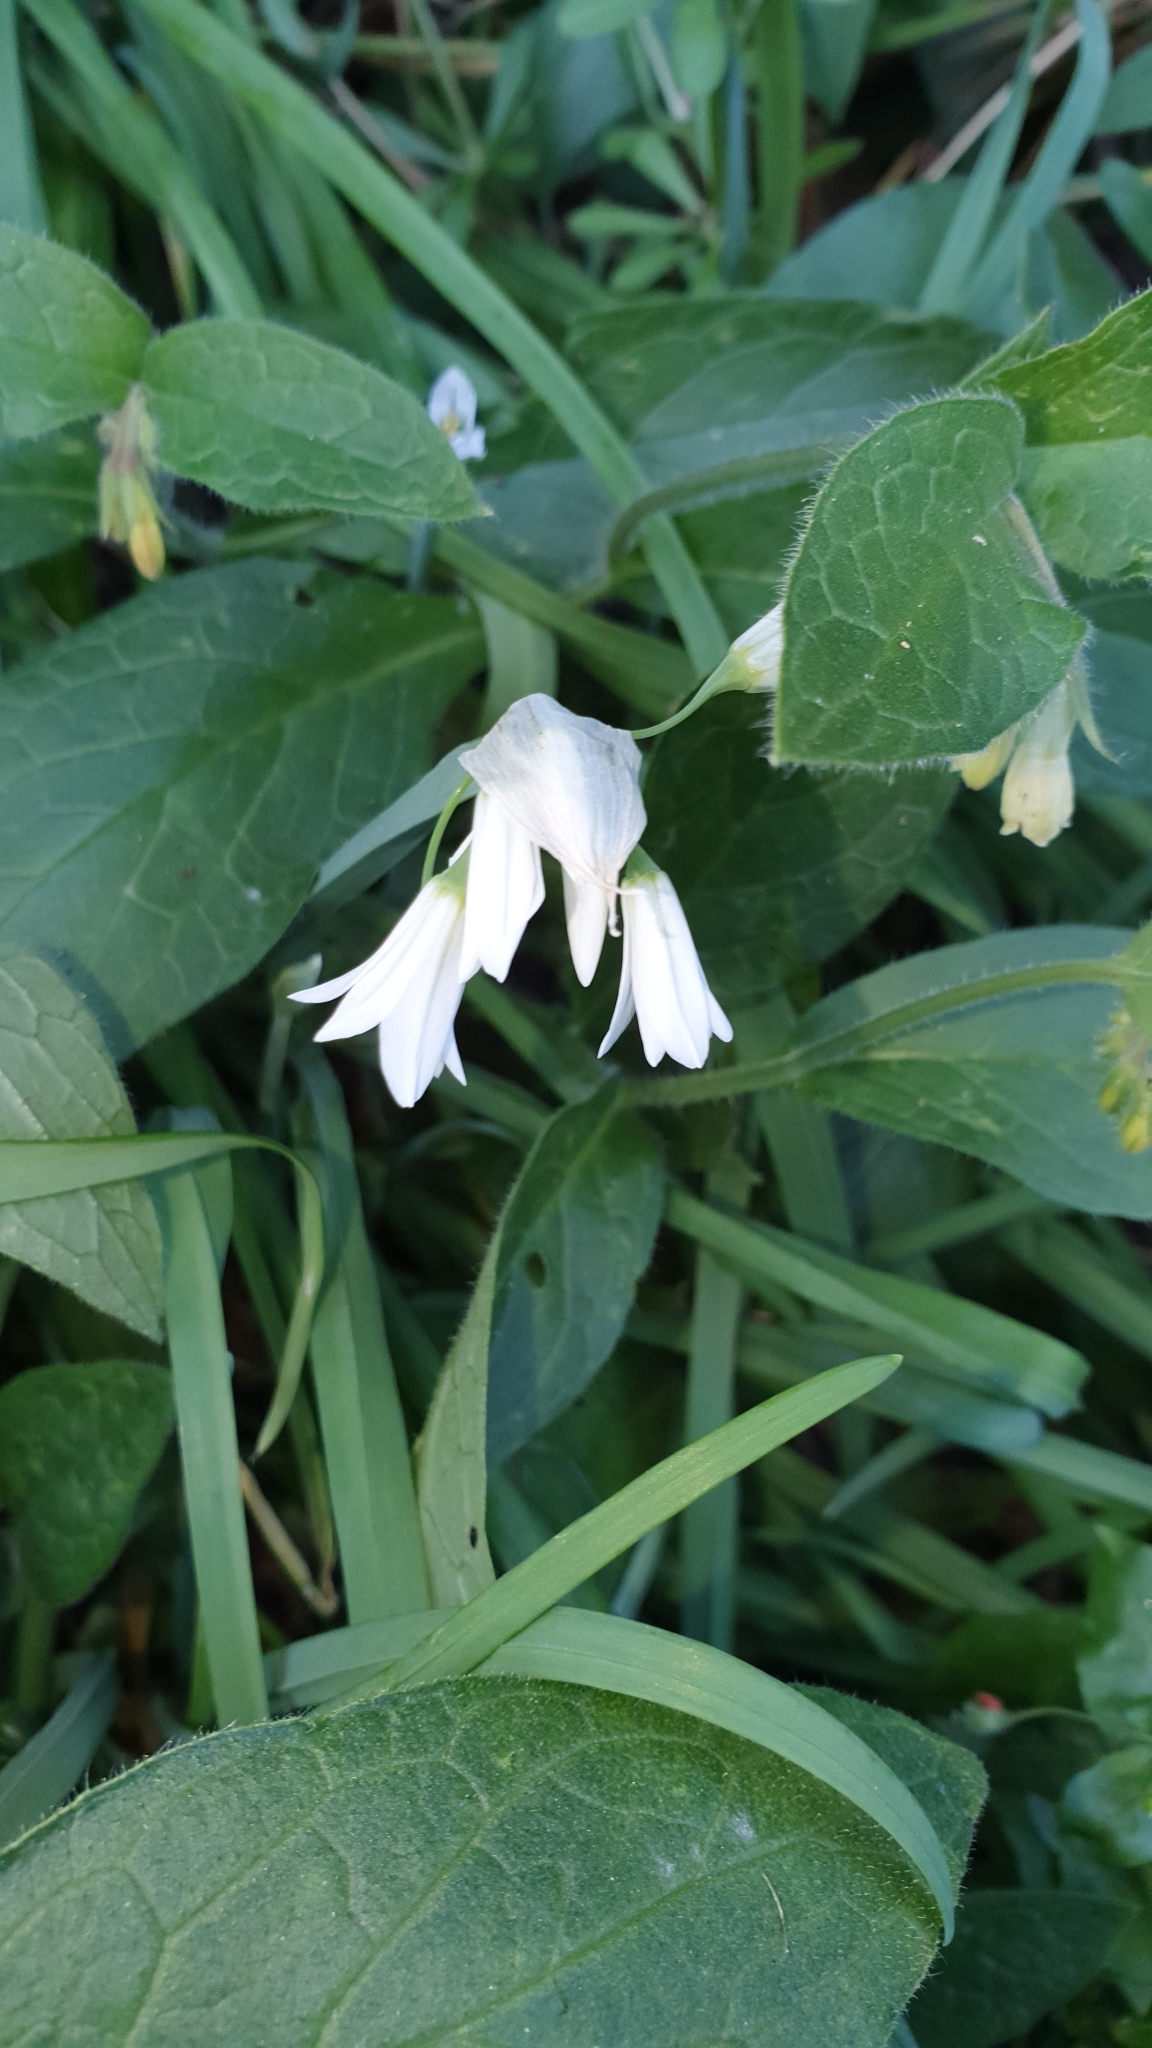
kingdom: Plantae
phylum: Tracheophyta
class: Liliopsida
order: Asparagales
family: Amaryllidaceae
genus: Allium
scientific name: Allium triquetrum
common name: Three-cornered garlic
